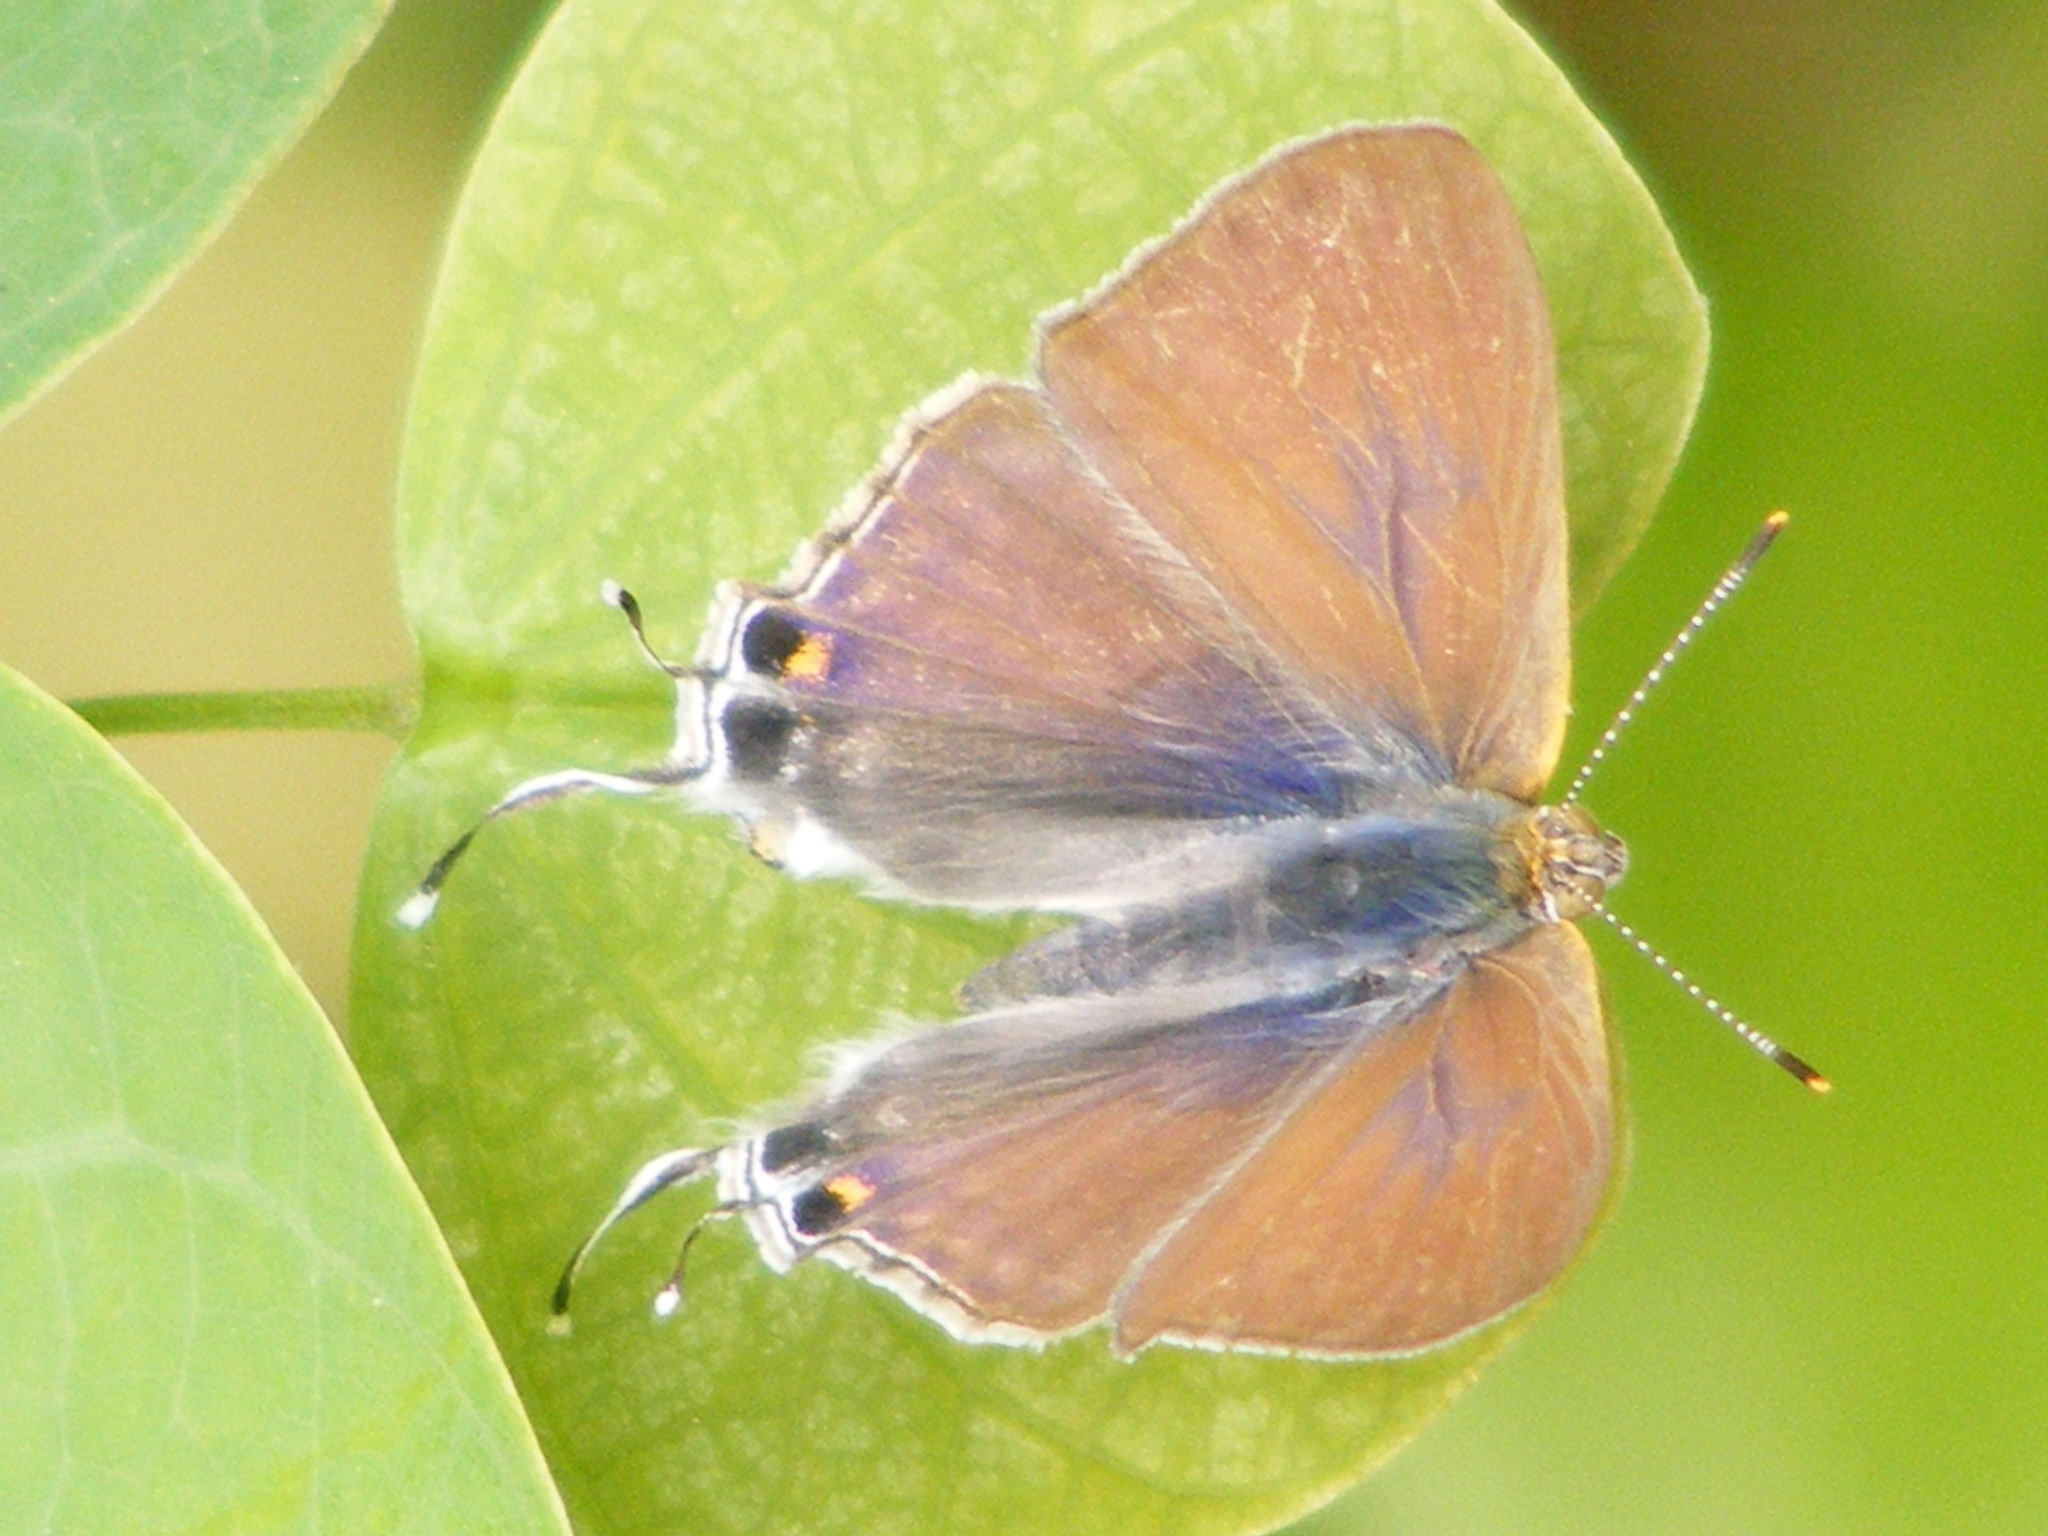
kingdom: Animalia
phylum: Arthropoda
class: Insecta
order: Lepidoptera
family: Lycaenidae
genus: Hypolycaena
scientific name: Hypolycaena philippus
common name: Common hairstreak
